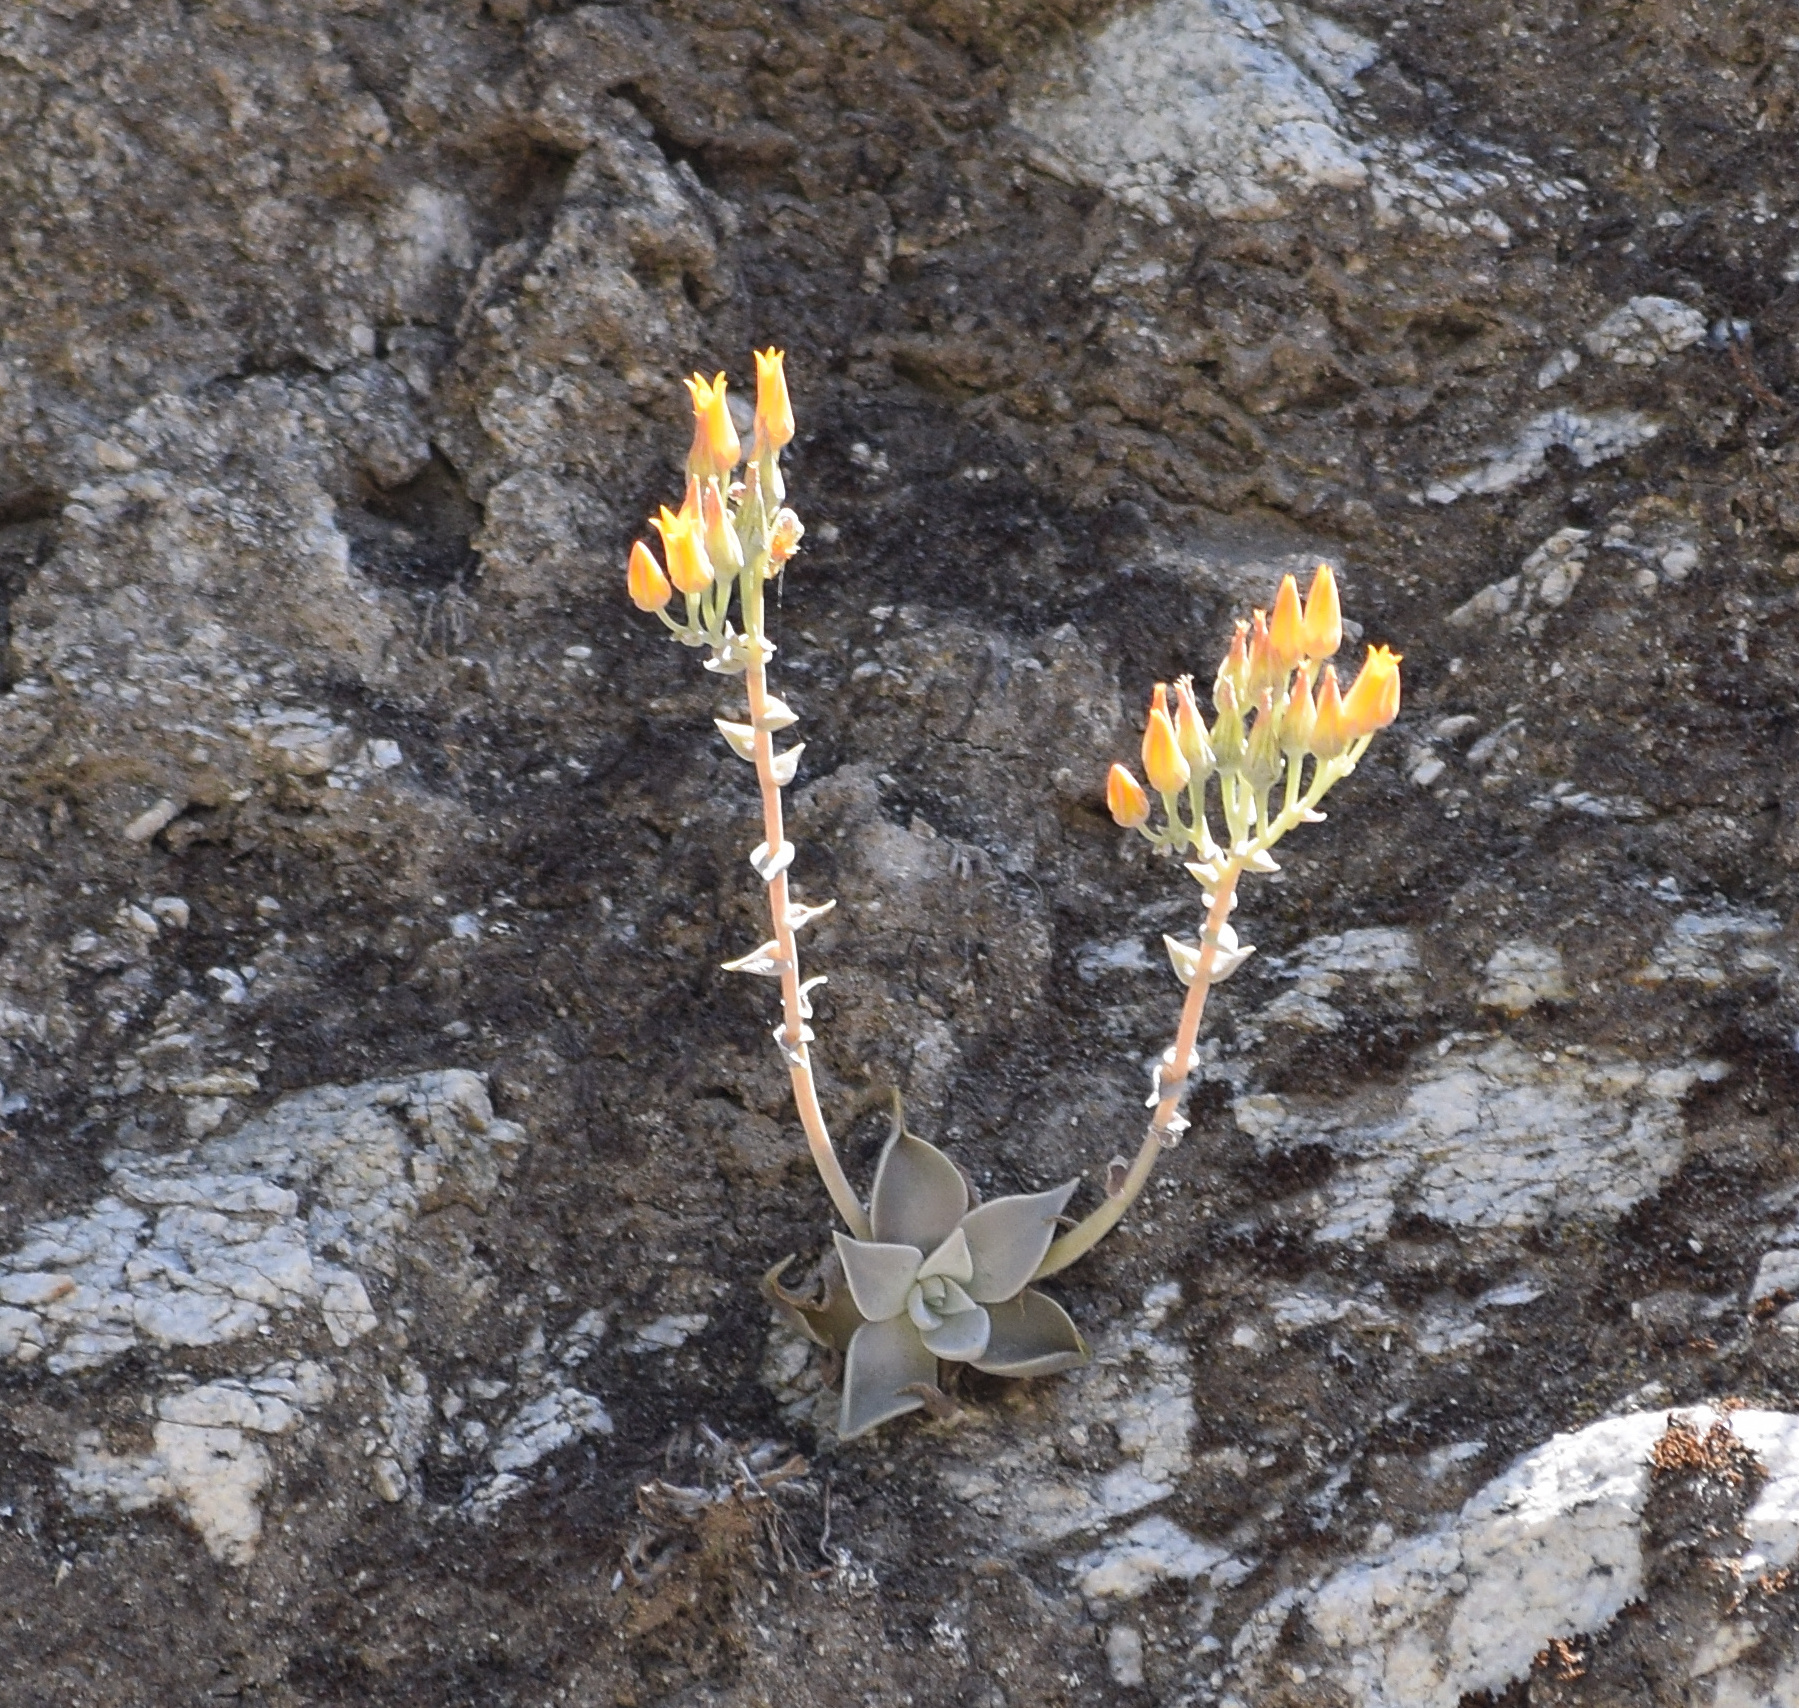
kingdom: Plantae
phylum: Tracheophyta
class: Magnoliopsida
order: Saxifragales
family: Crassulaceae
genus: Dudleya
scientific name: Dudleya cymosa
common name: Canyon dudleya
